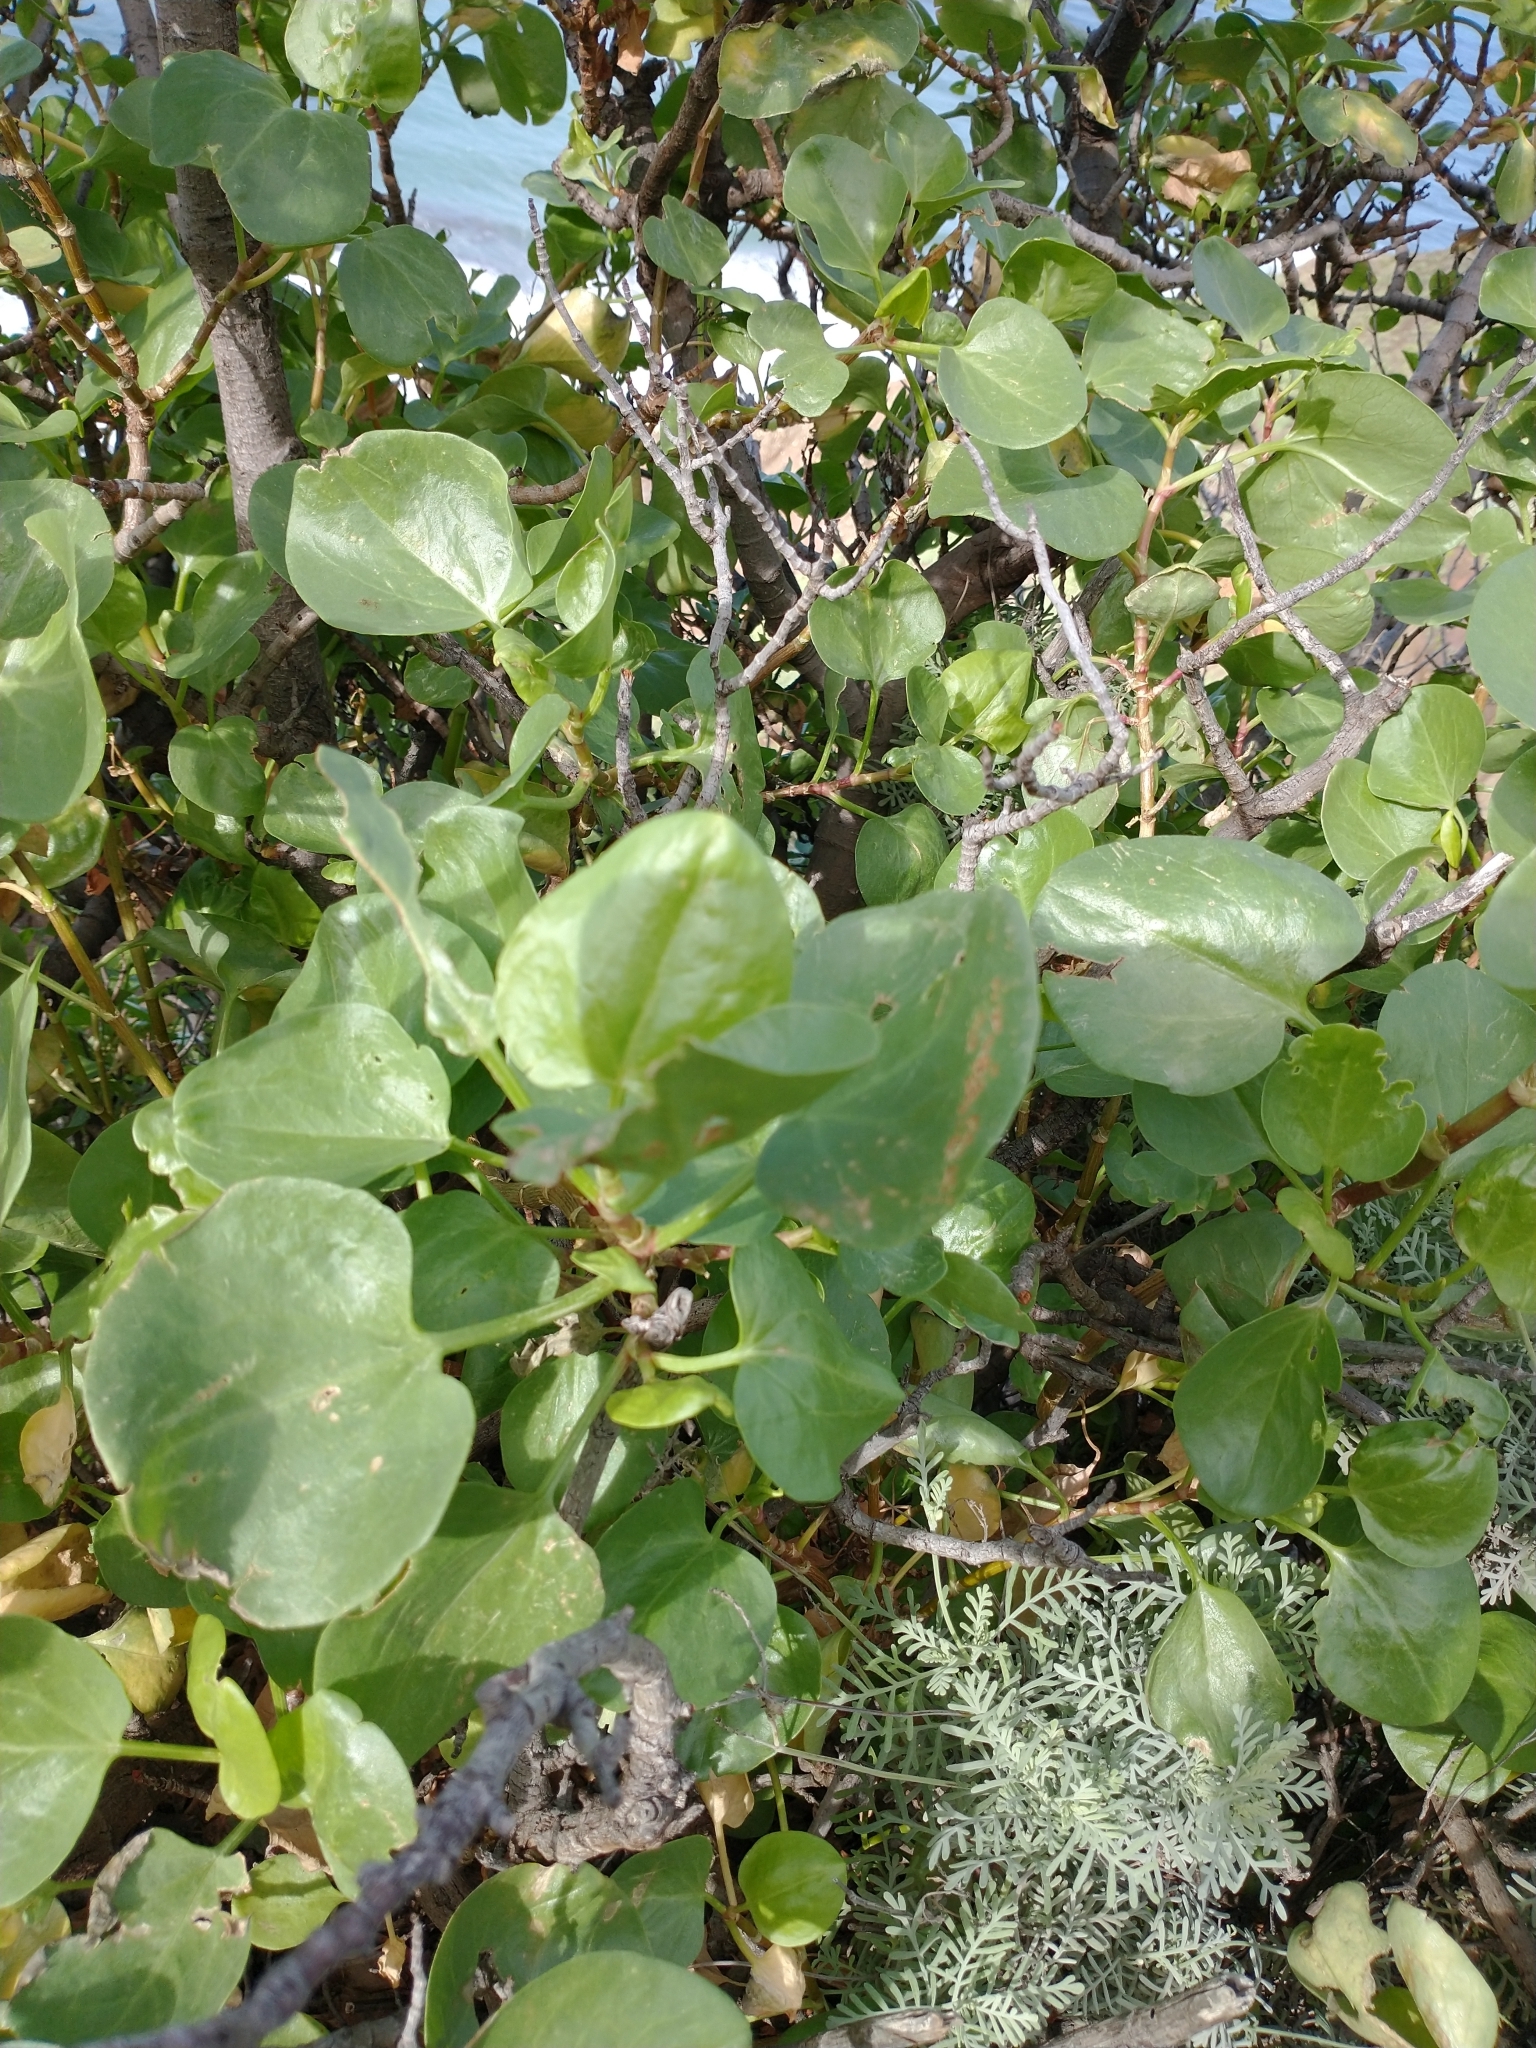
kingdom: Plantae
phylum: Tracheophyta
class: Magnoliopsida
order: Caryophyllales
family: Polygonaceae
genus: Rumex
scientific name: Rumex lunaria
